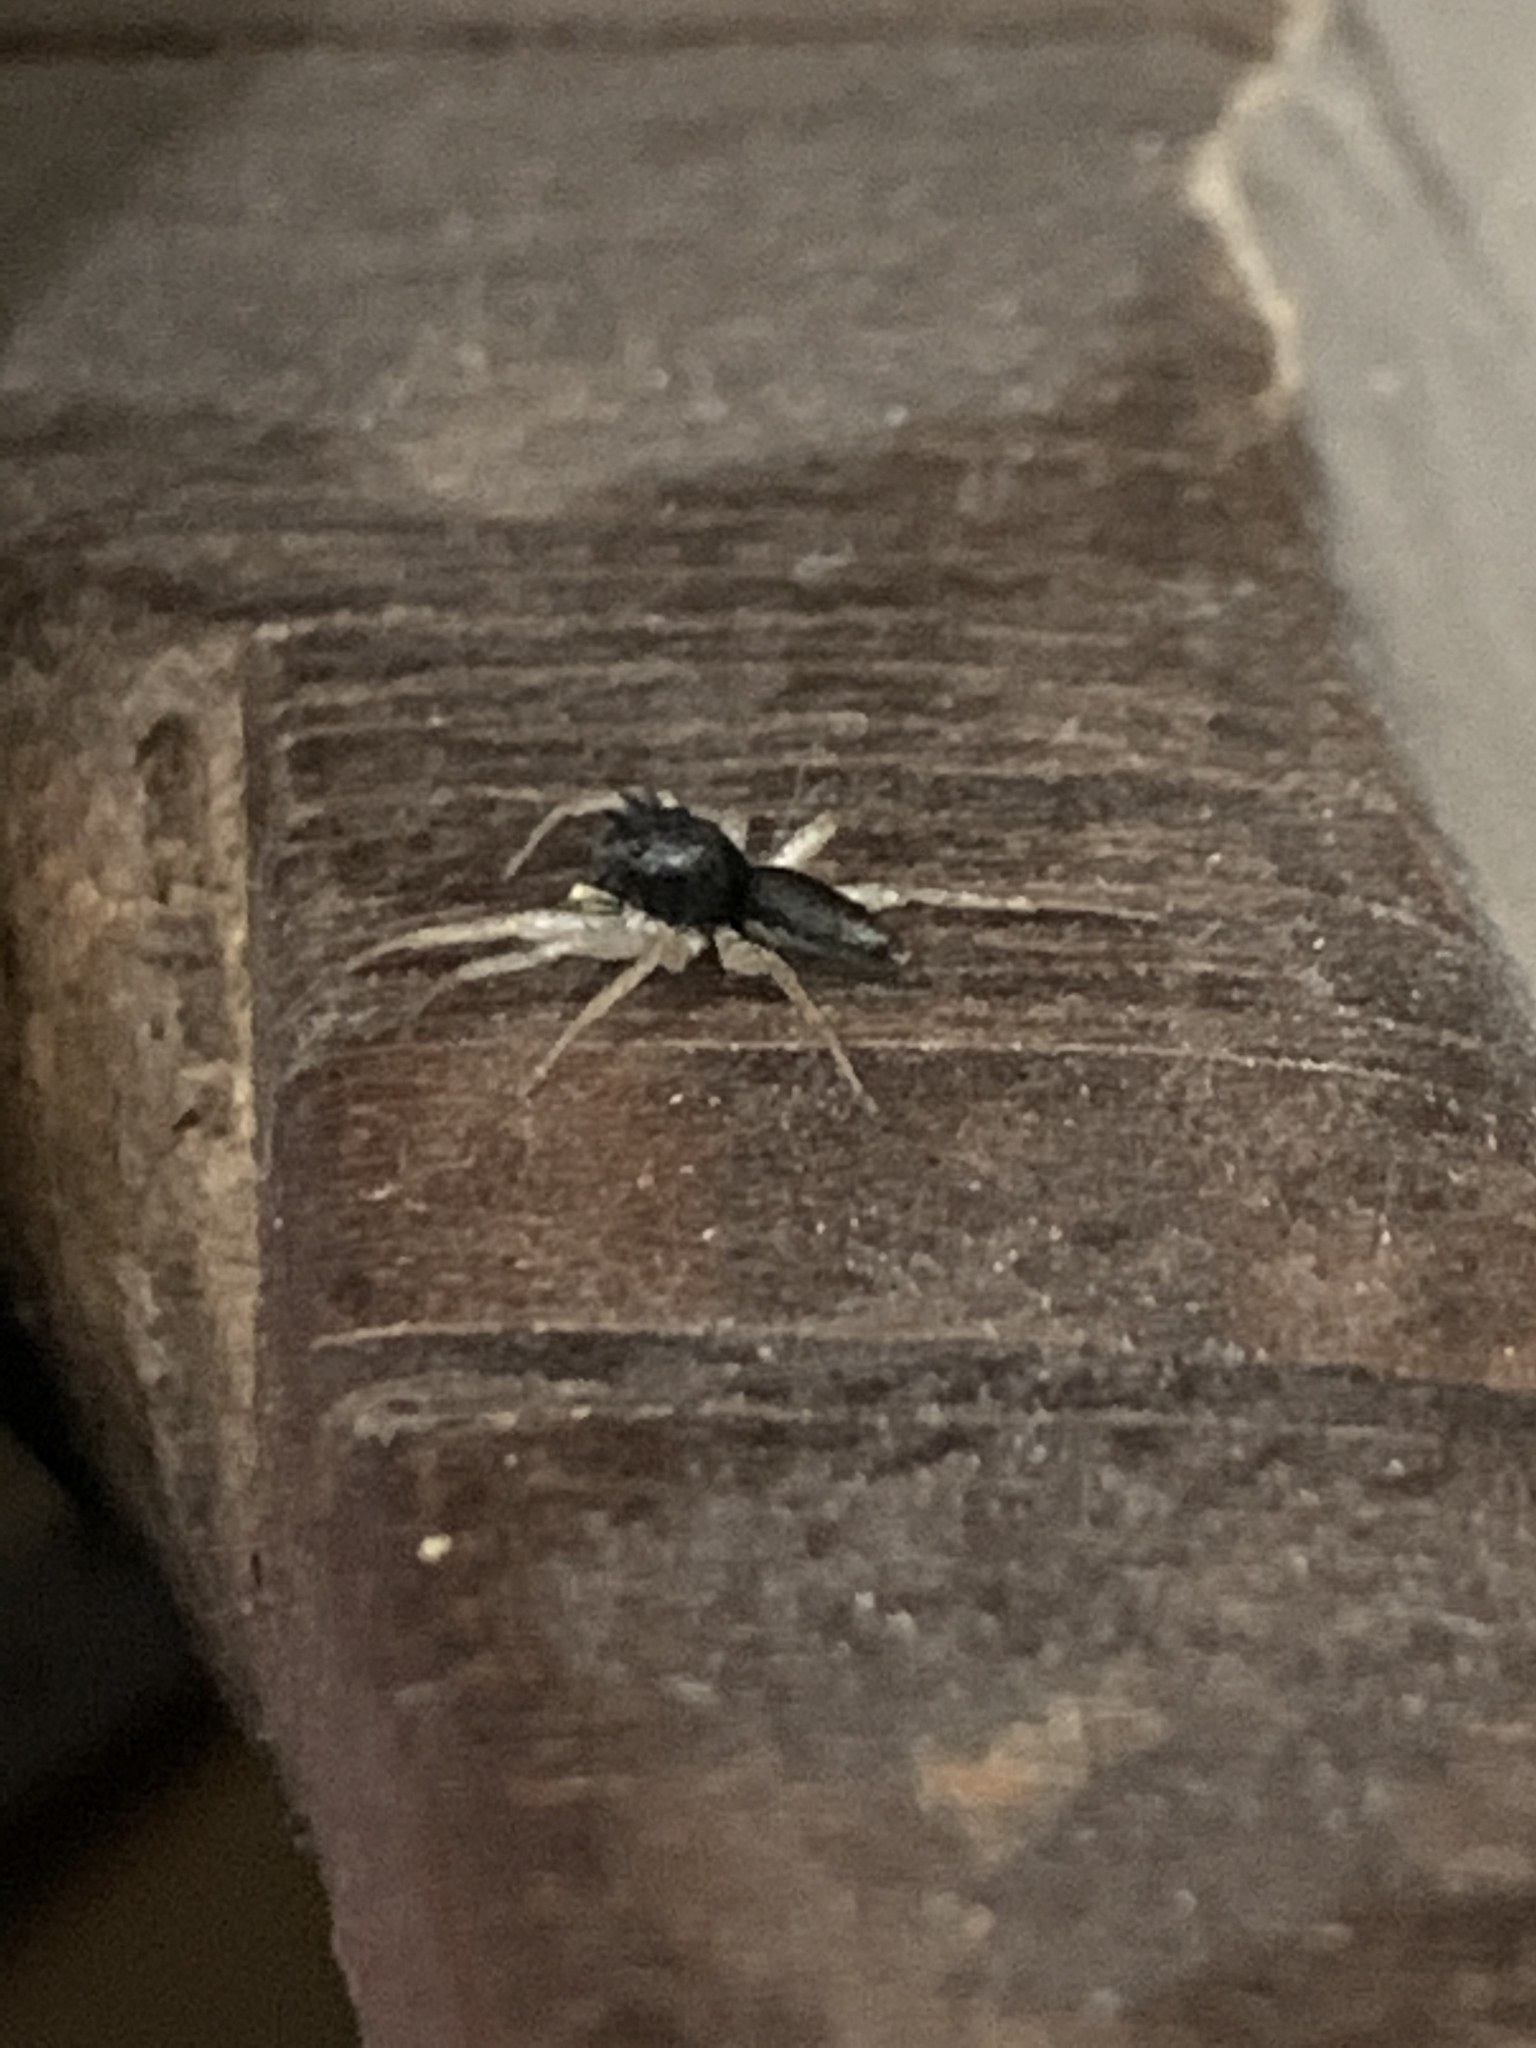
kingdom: Animalia
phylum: Arthropoda
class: Arachnida
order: Araneae
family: Salticidae
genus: Maevia
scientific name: Maevia inclemens
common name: Dimorphic jumper
